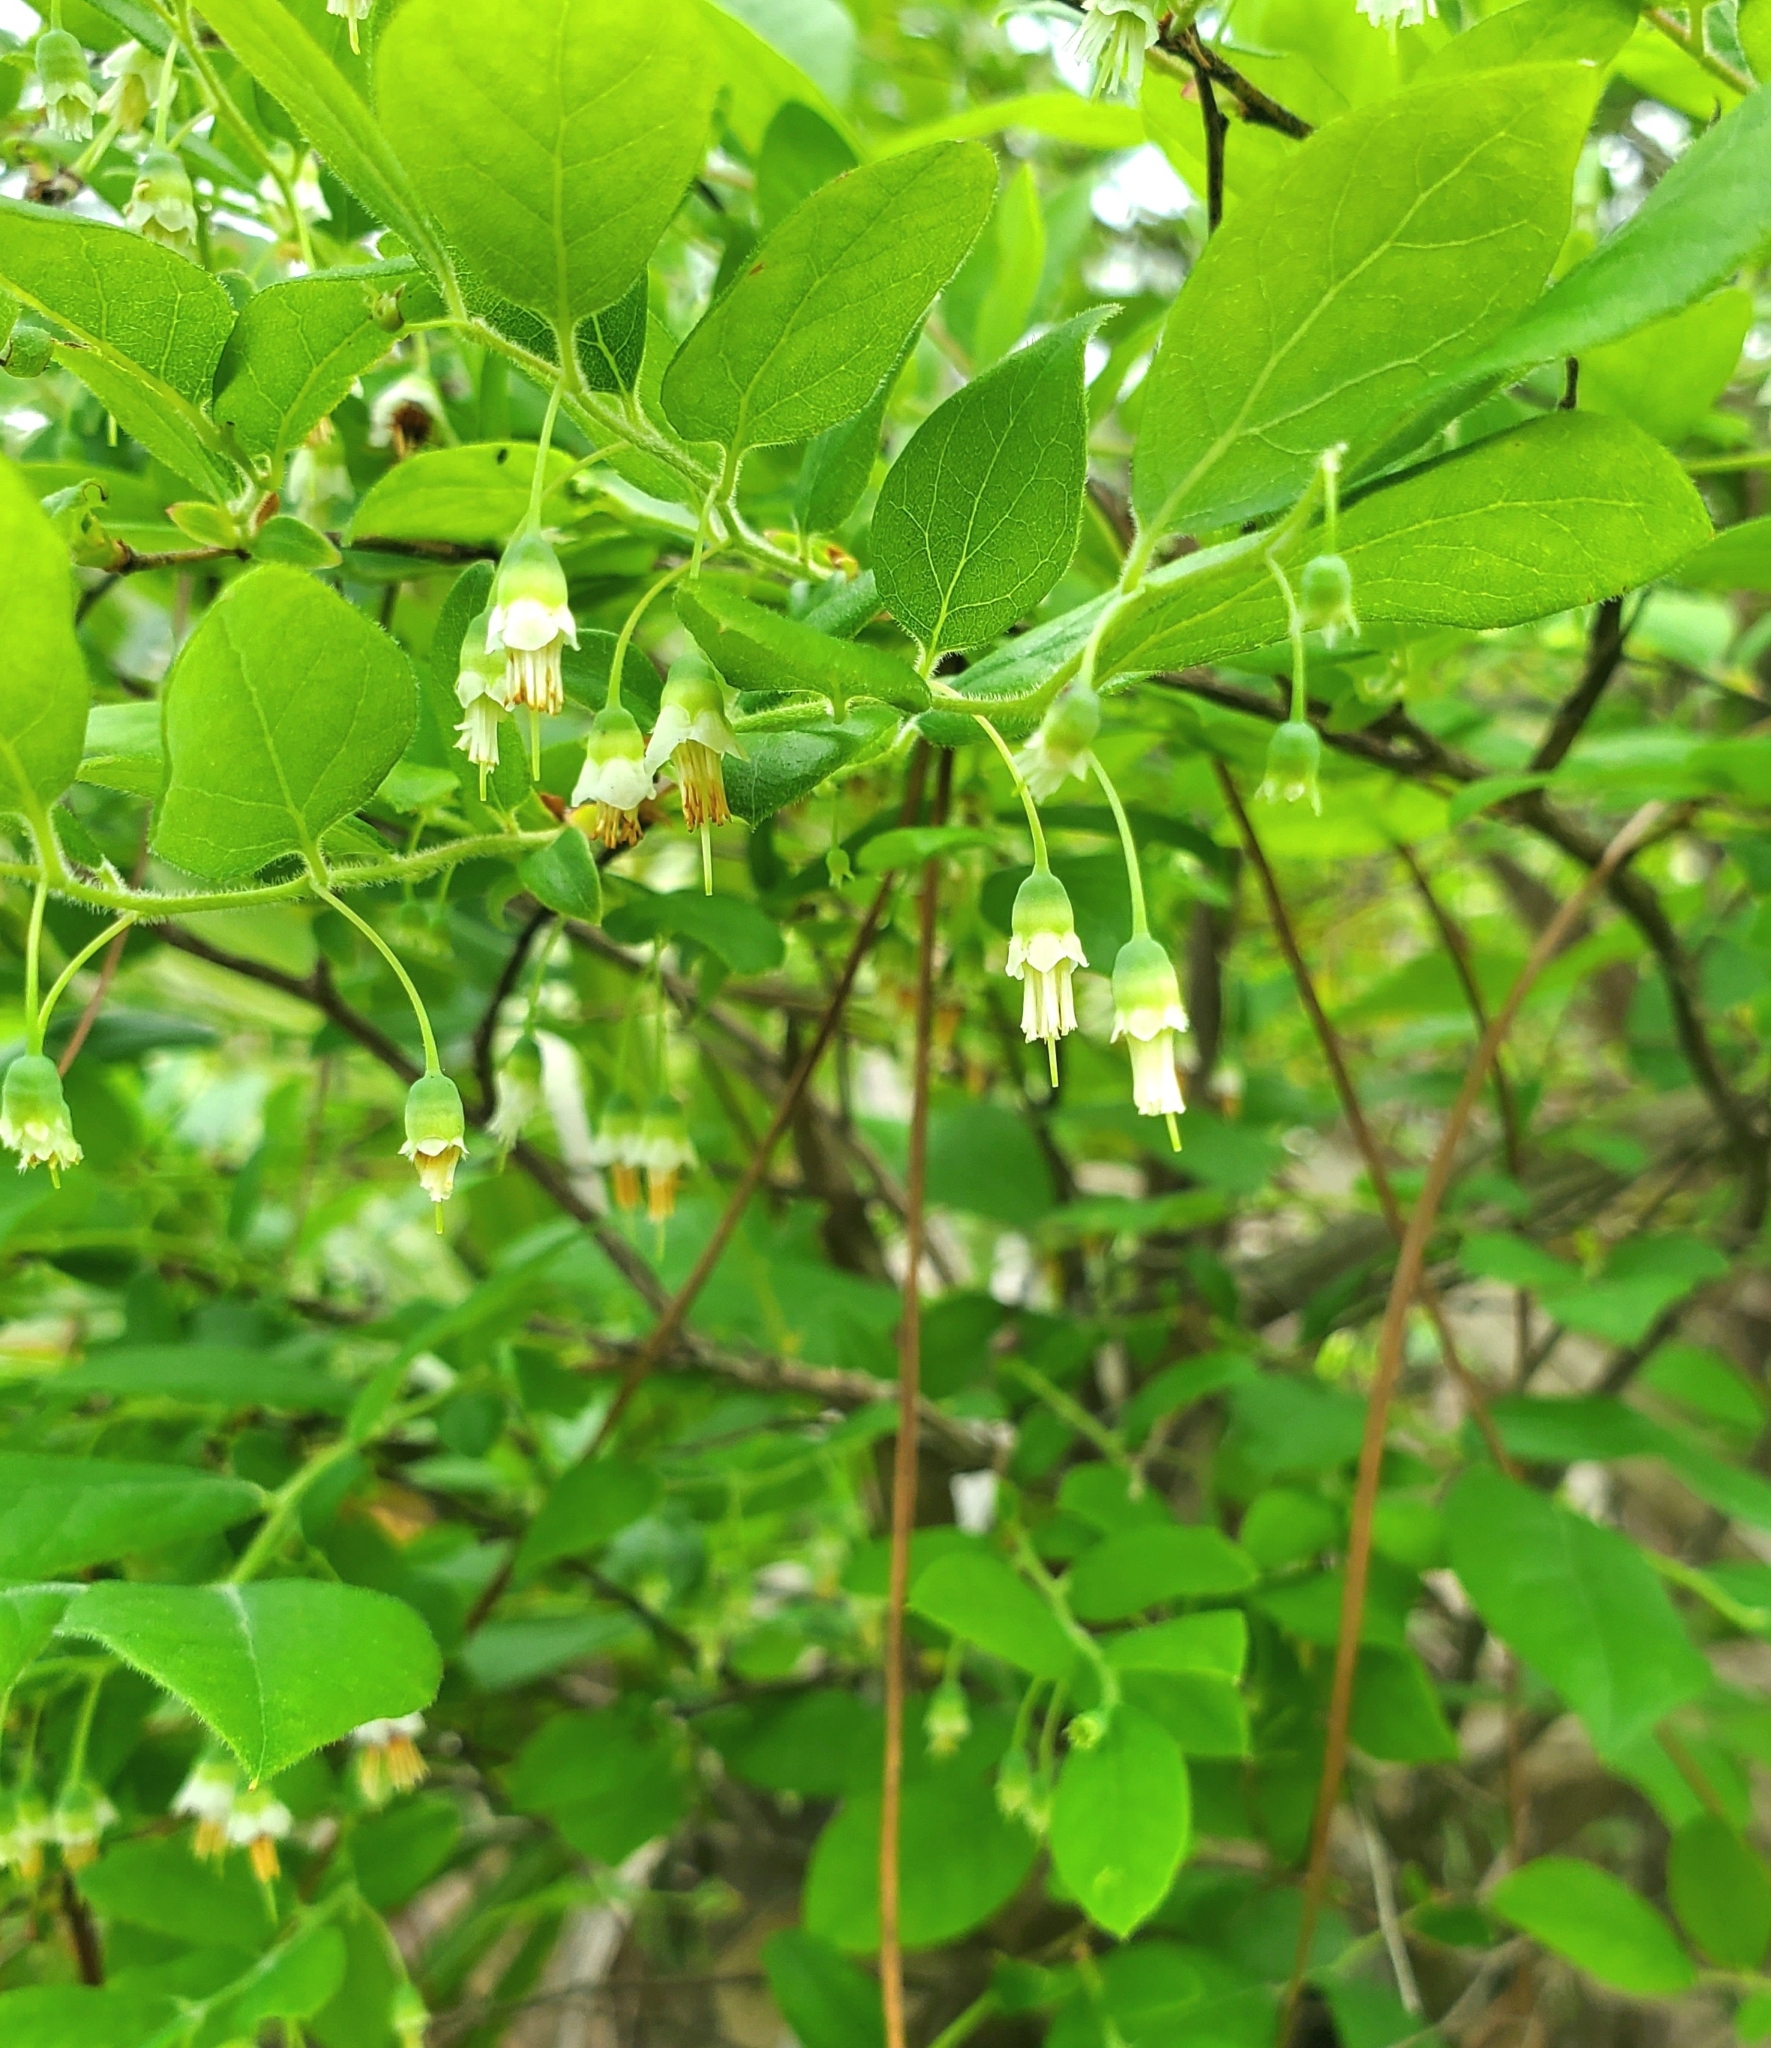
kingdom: Plantae
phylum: Tracheophyta
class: Magnoliopsida
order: Ericales
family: Ericaceae
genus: Vaccinium
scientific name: Vaccinium stamineum
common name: Deerberry
